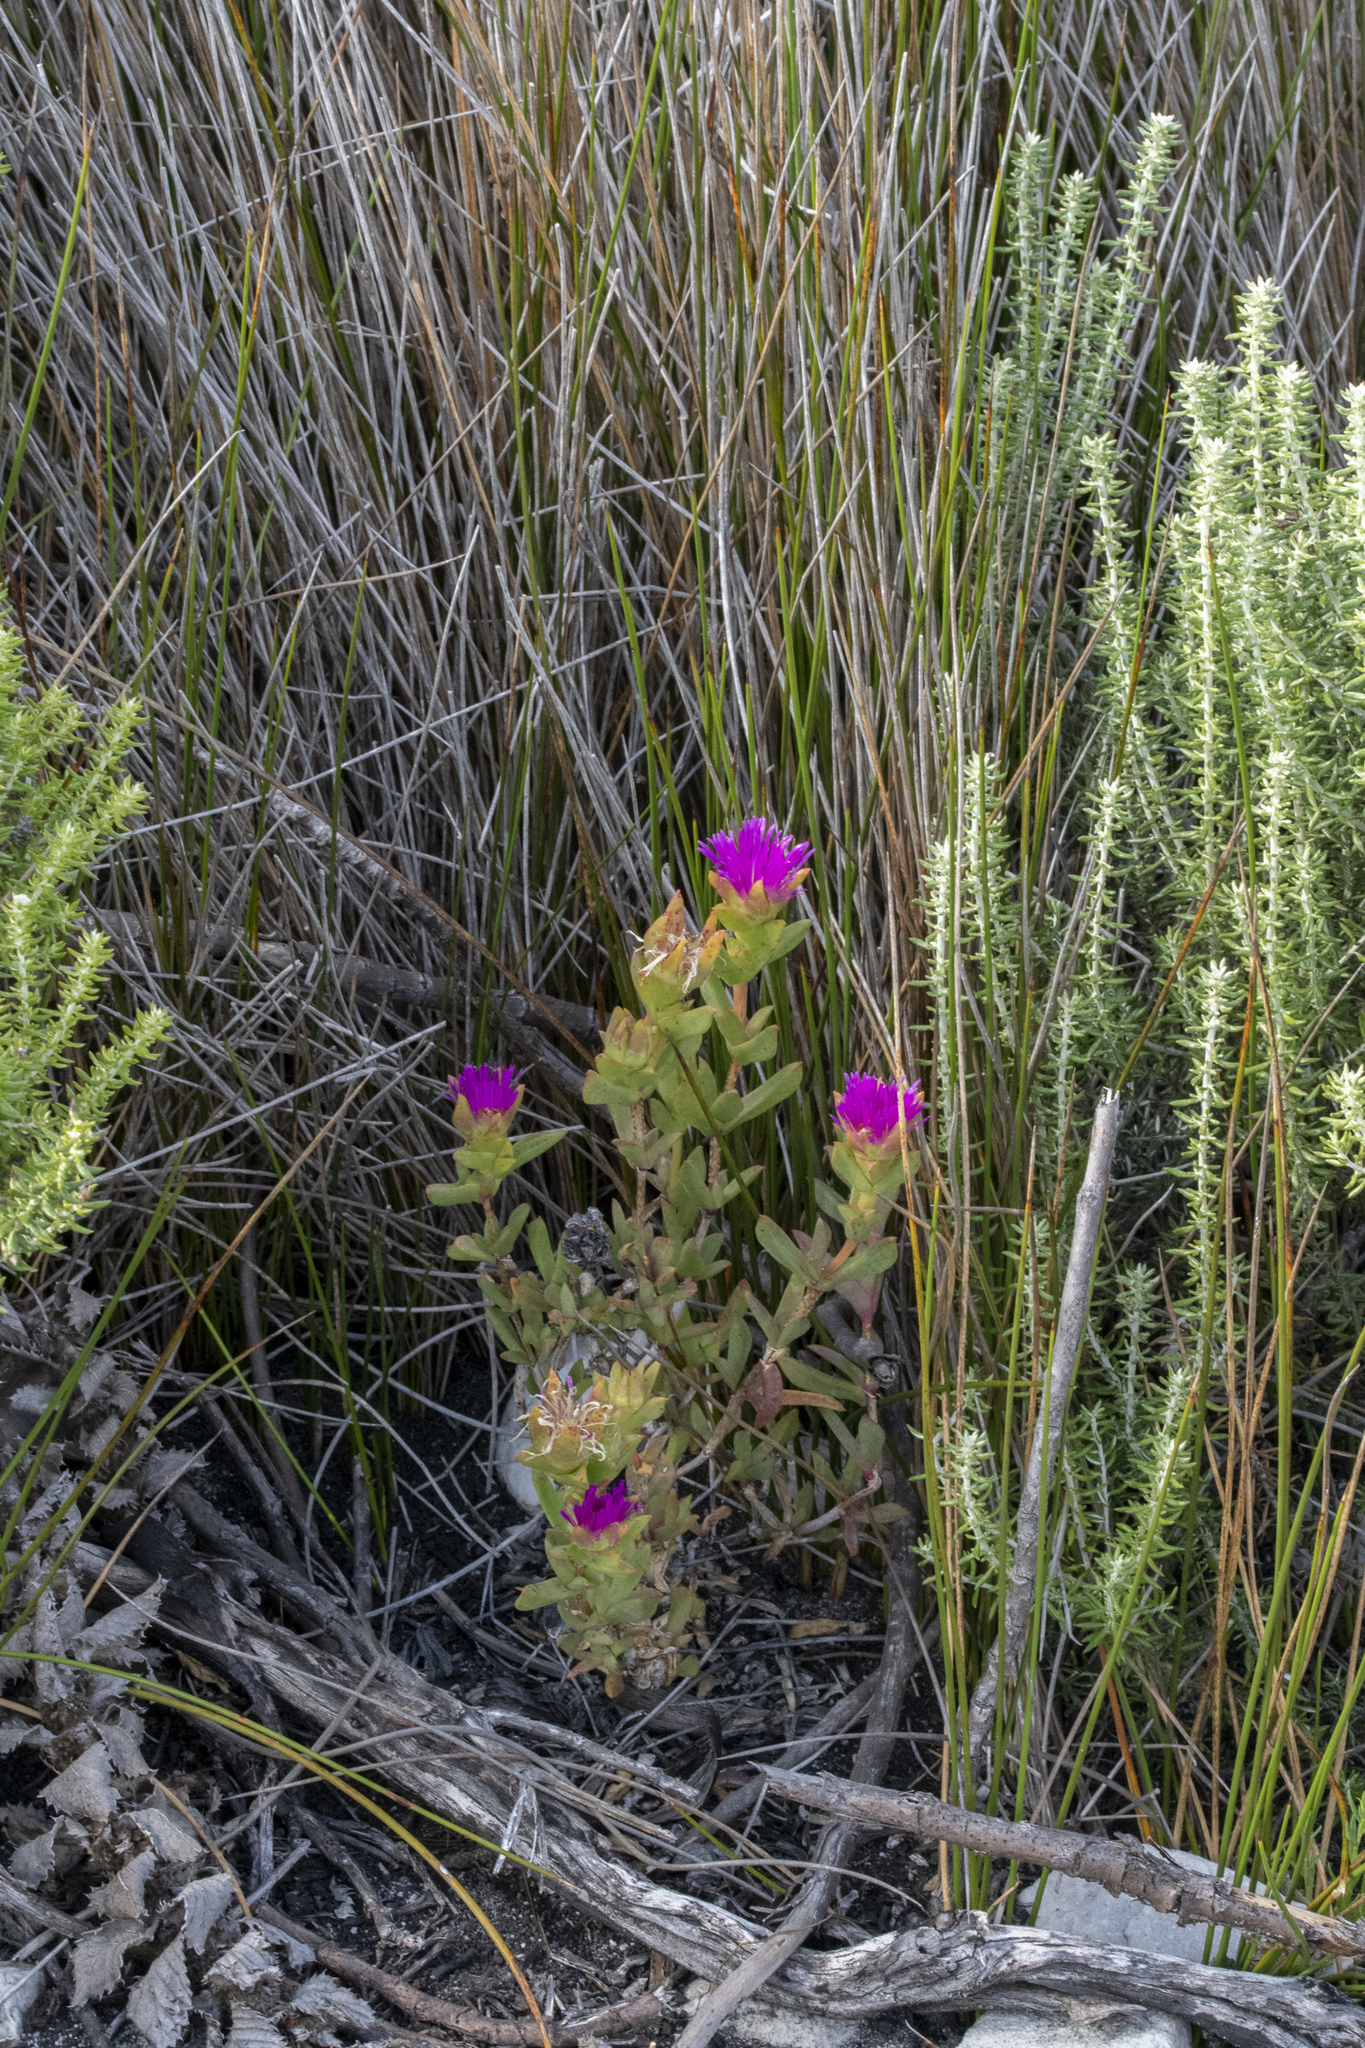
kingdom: Plantae
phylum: Tracheophyta
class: Magnoliopsida
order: Caryophyllales
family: Aizoaceae
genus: Erepsia
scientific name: Erepsia steytlerae
